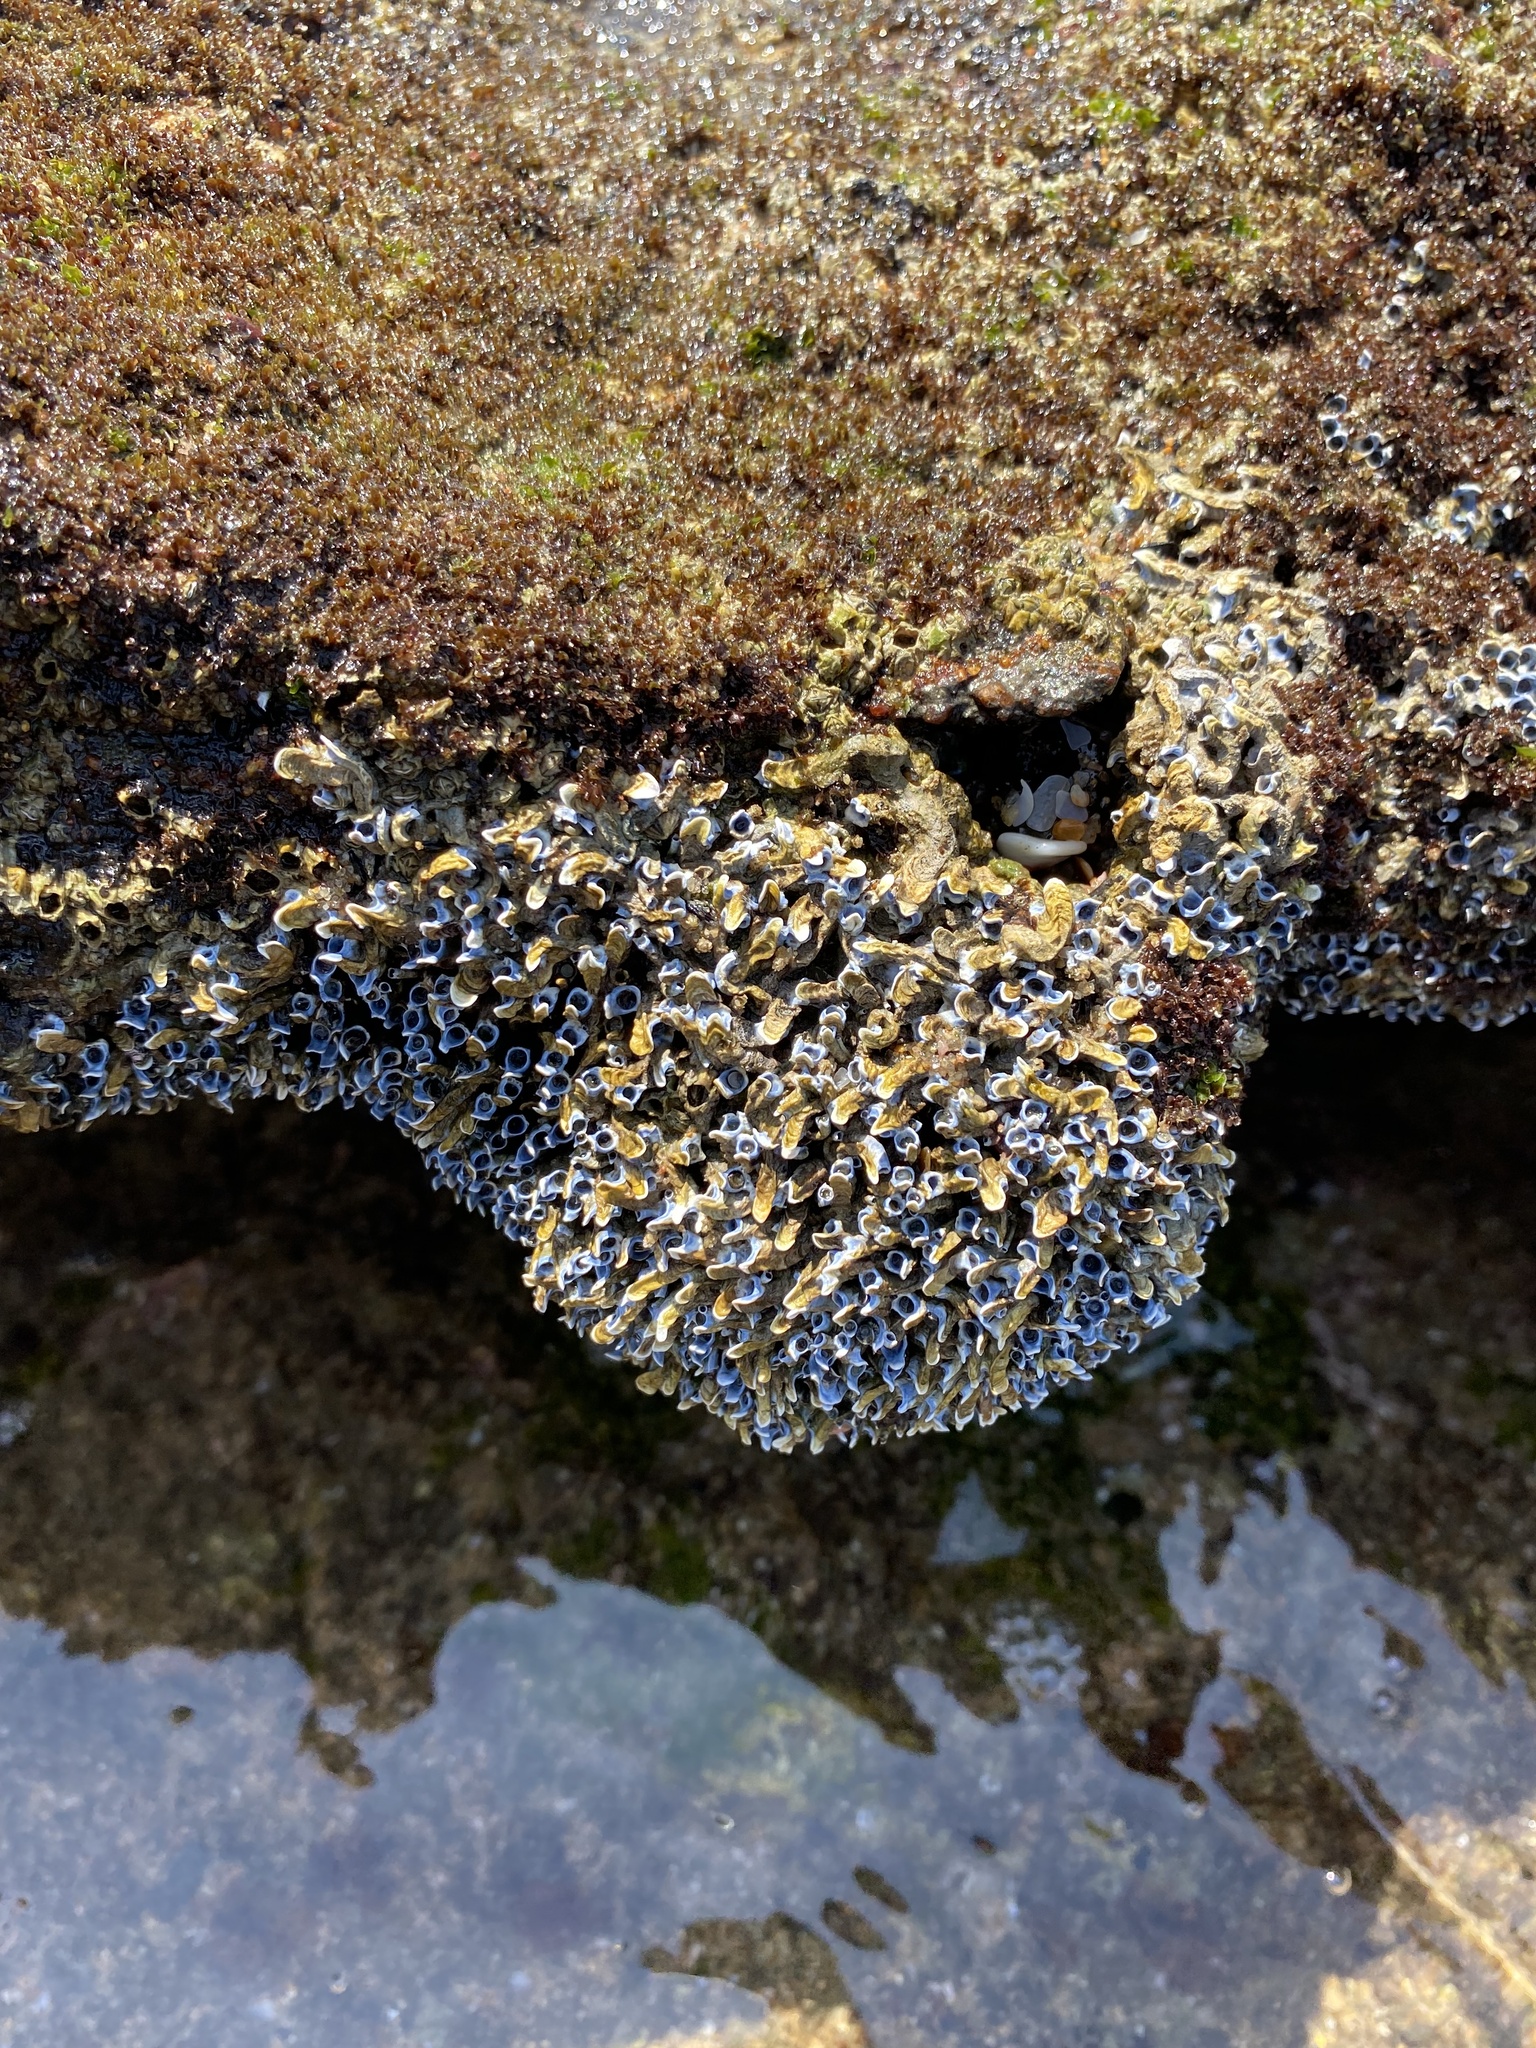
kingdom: Animalia
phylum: Annelida
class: Polychaeta
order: Sabellida
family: Serpulidae
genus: Spirobranchus
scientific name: Spirobranchus kraussii
